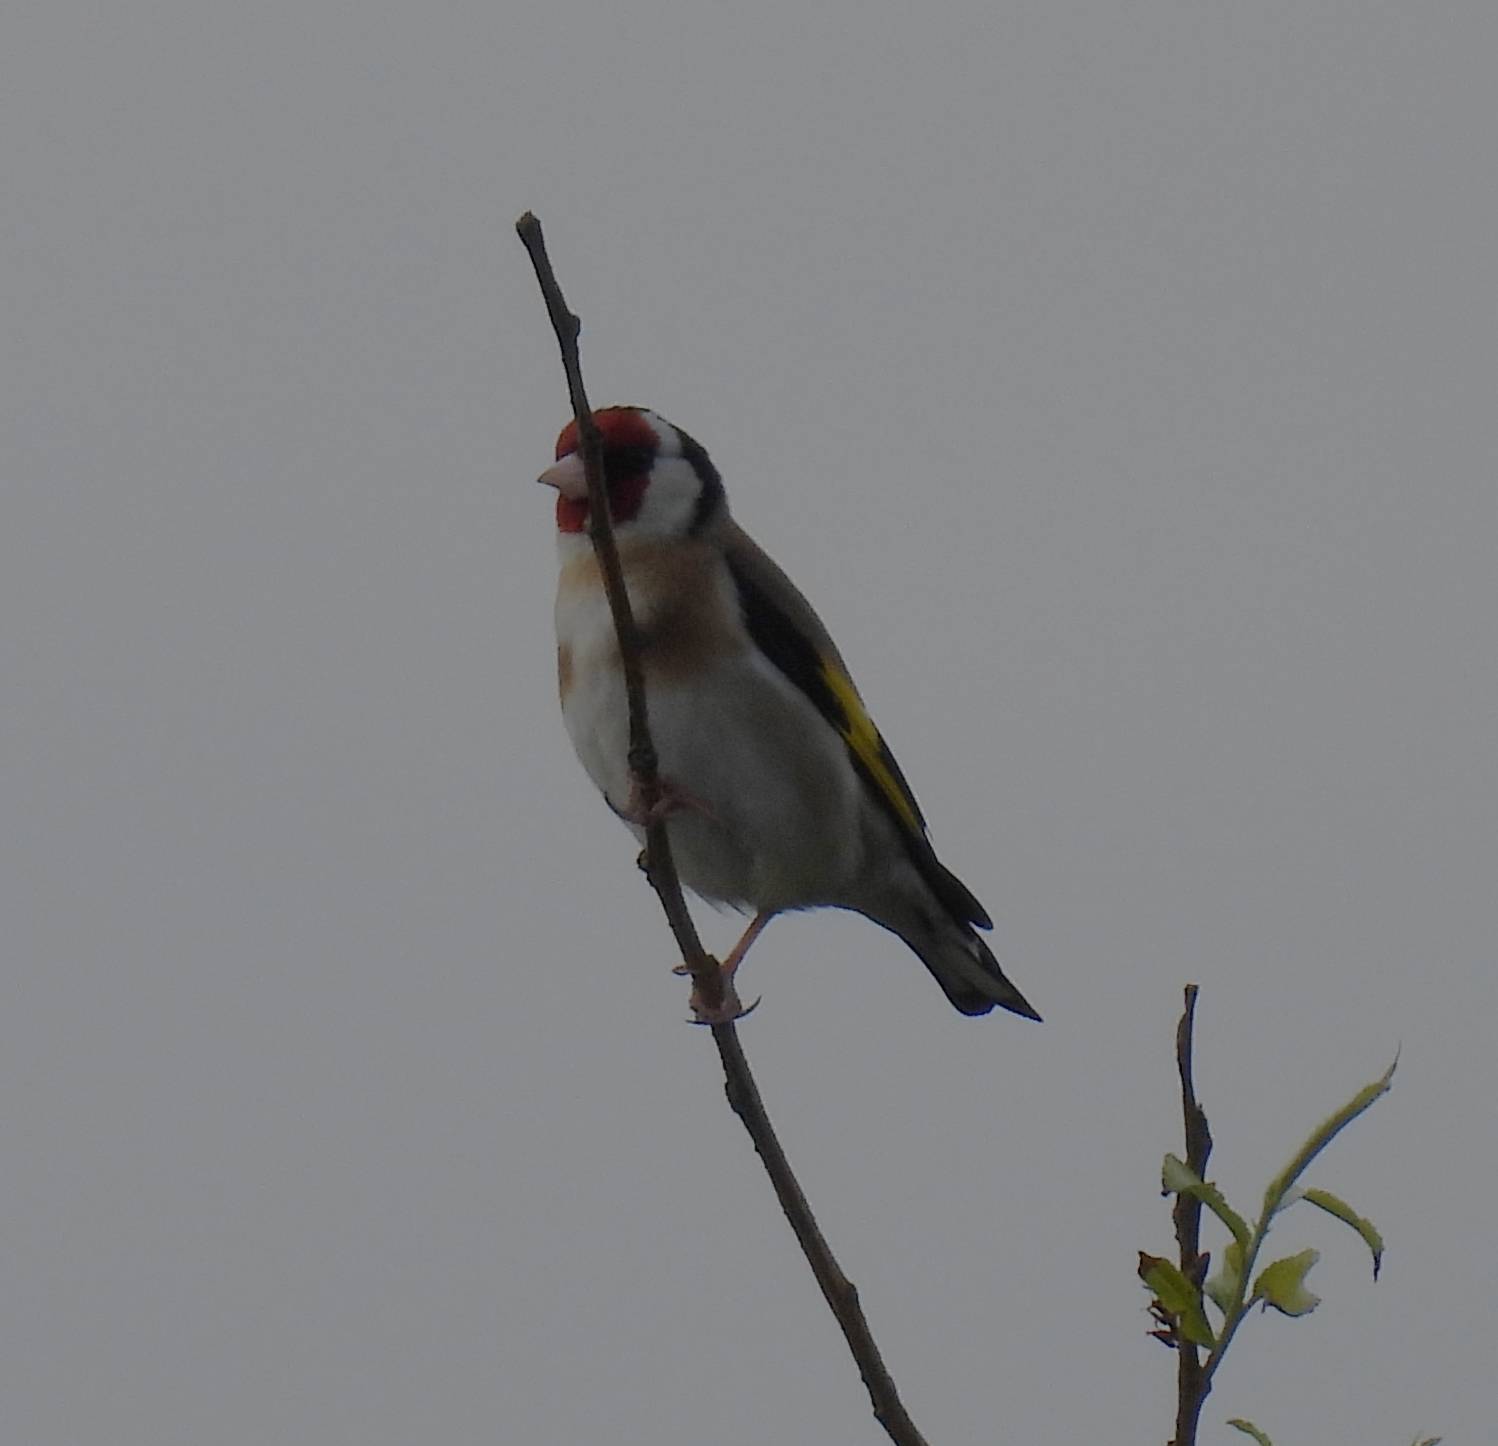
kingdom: Animalia
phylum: Chordata
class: Aves
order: Passeriformes
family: Fringillidae
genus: Carduelis
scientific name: Carduelis carduelis
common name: European goldfinch
